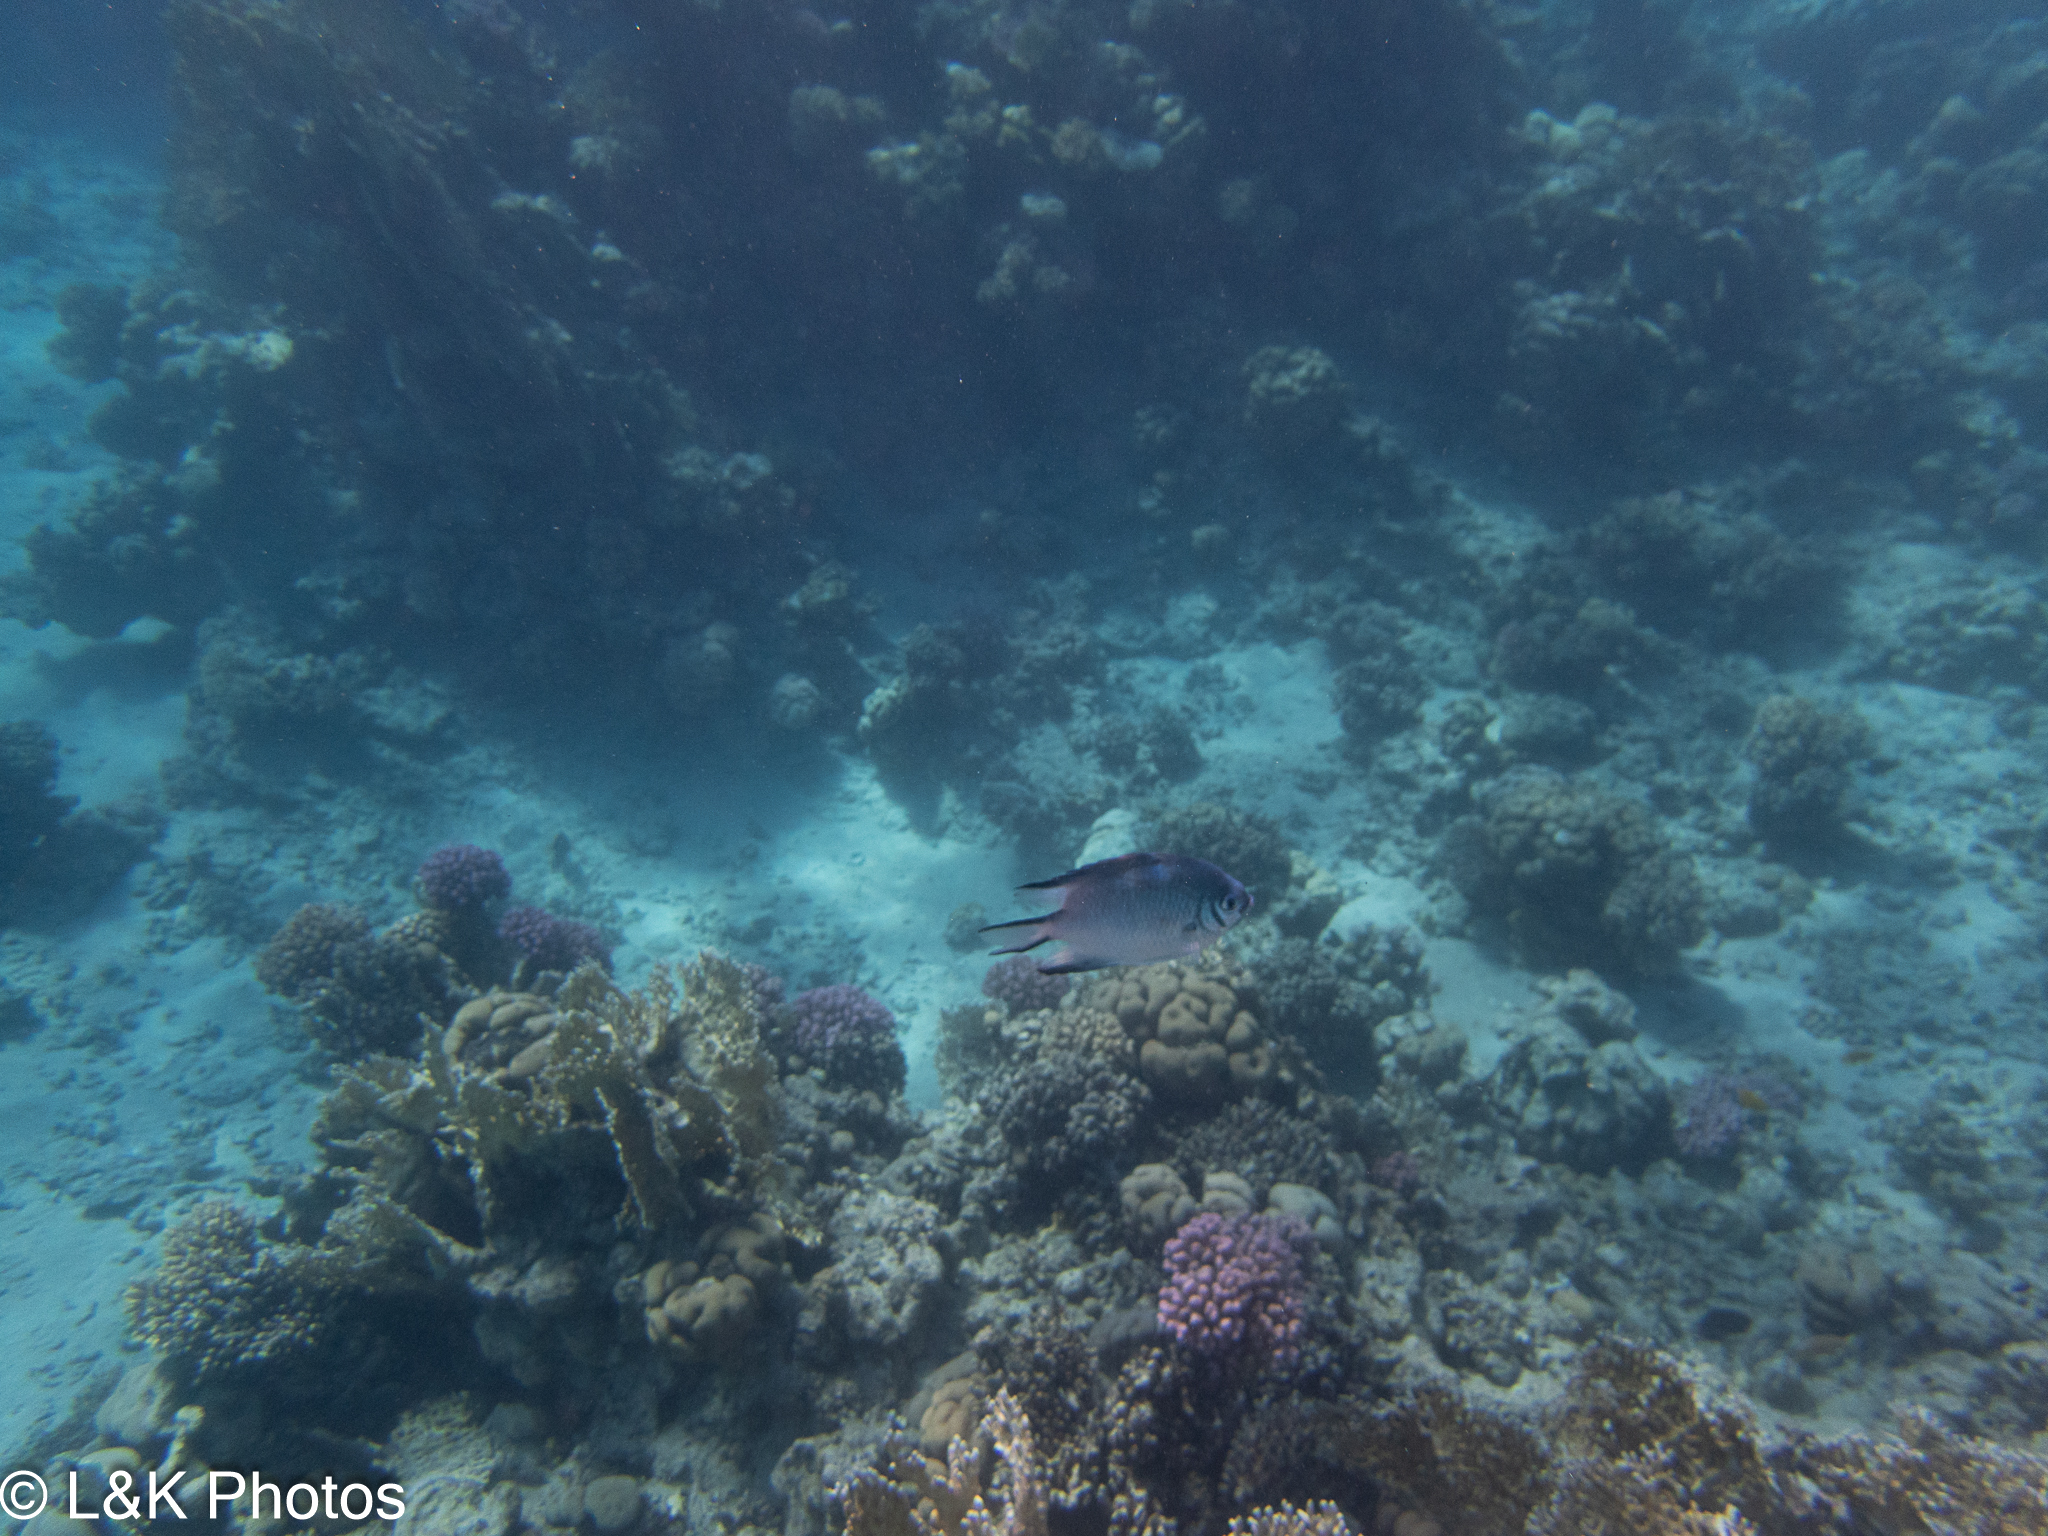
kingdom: Animalia
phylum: Chordata
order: Perciformes
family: Pomacentridae
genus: Amblyglyphidodon
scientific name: Amblyglyphidodon indicus
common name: Maldives damselfish
